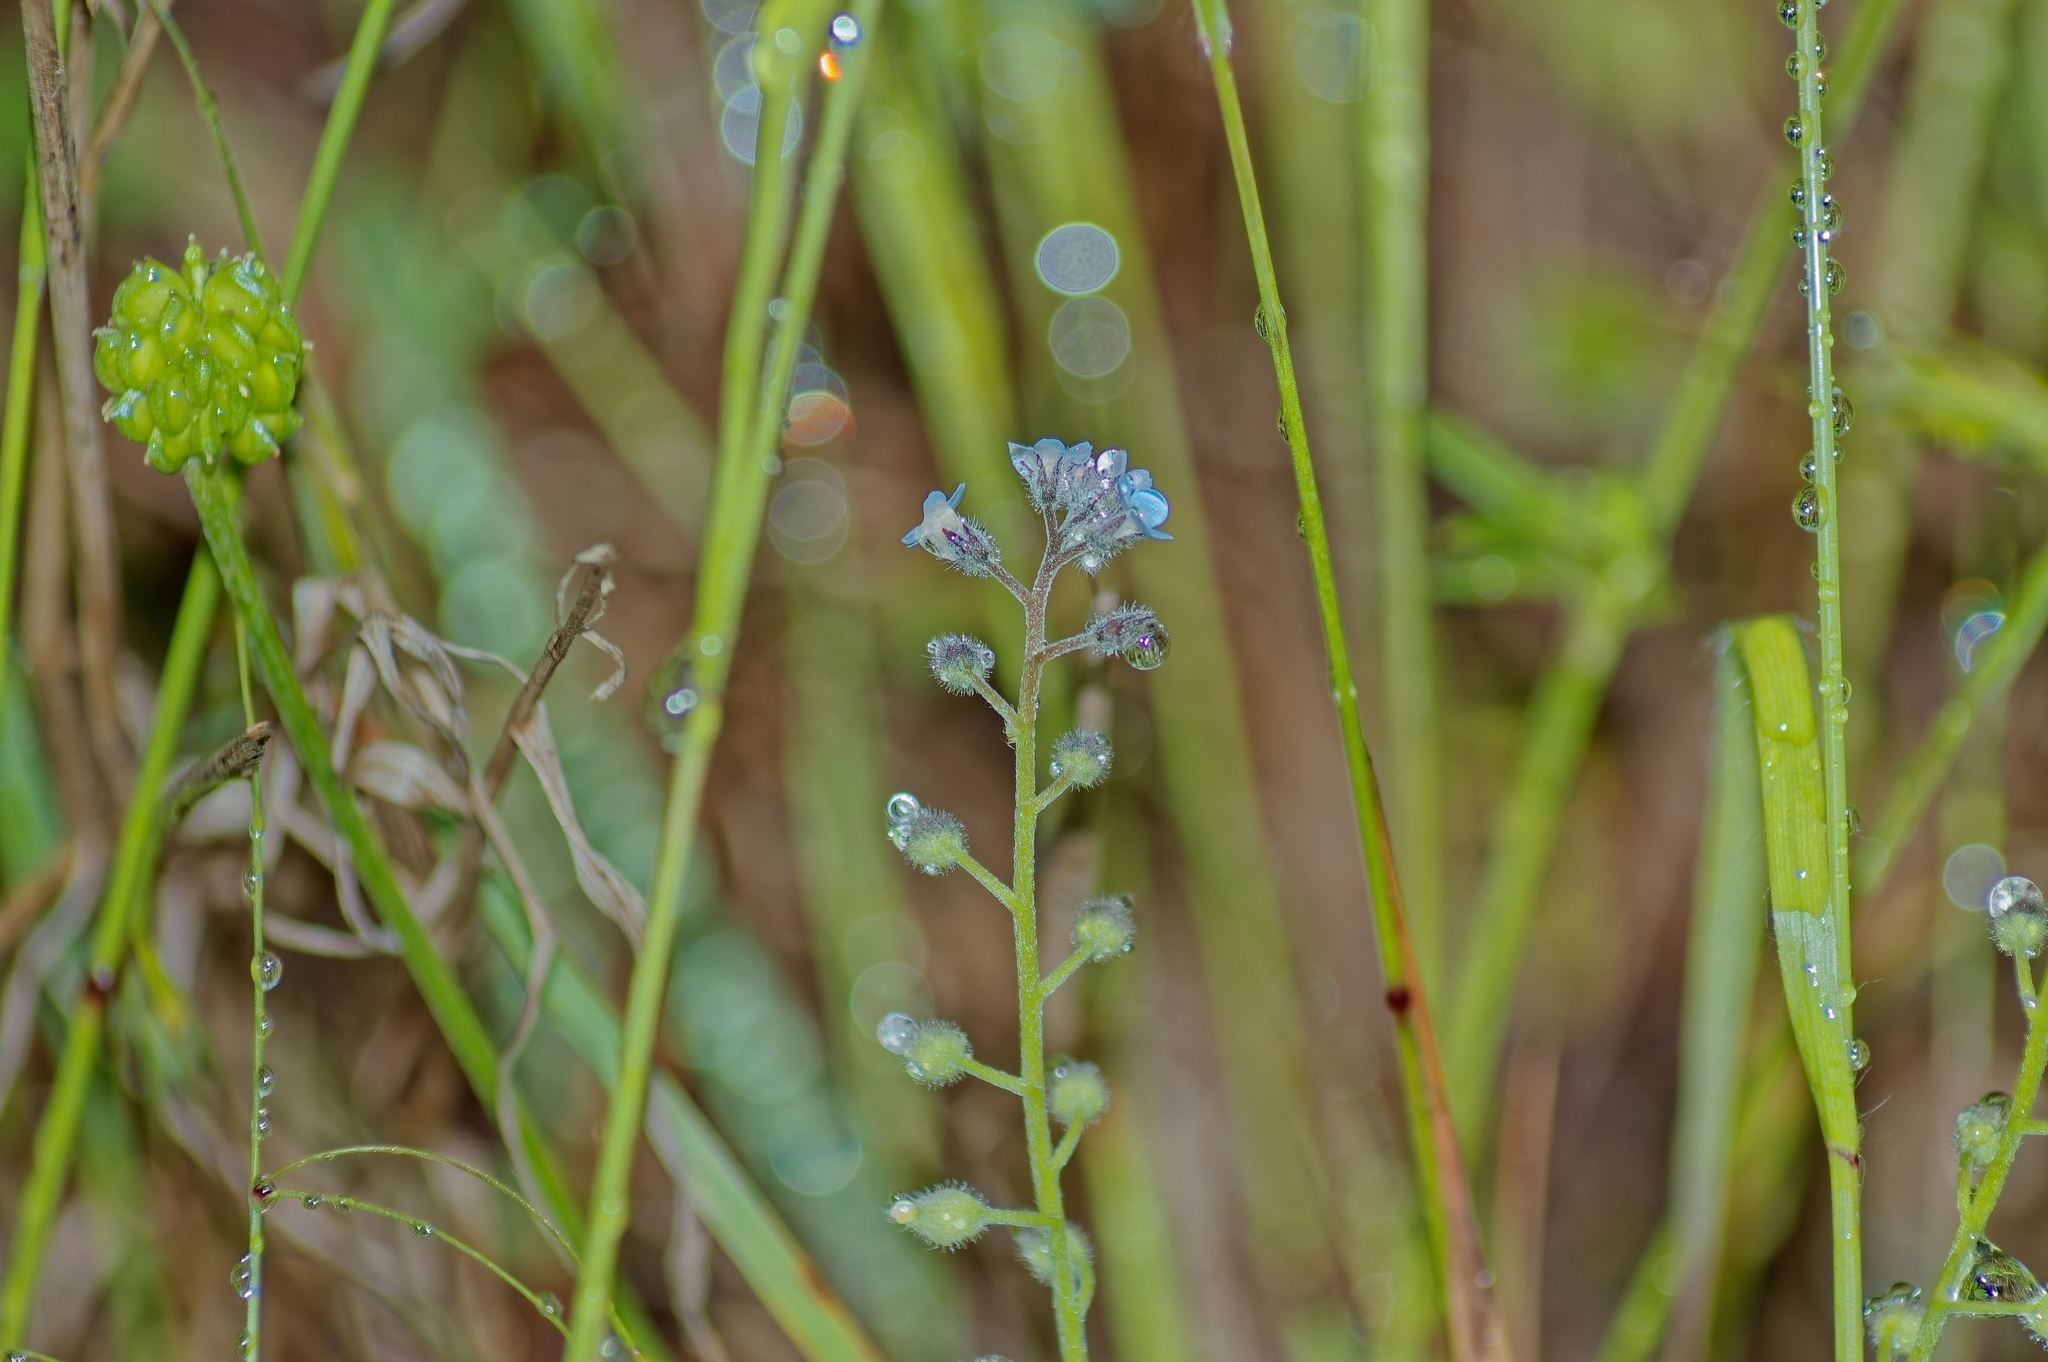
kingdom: Plantae
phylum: Tracheophyta
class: Magnoliopsida
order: Boraginales
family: Boraginaceae
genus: Myosotis
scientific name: Myosotis arvensis
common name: Field forget-me-not
